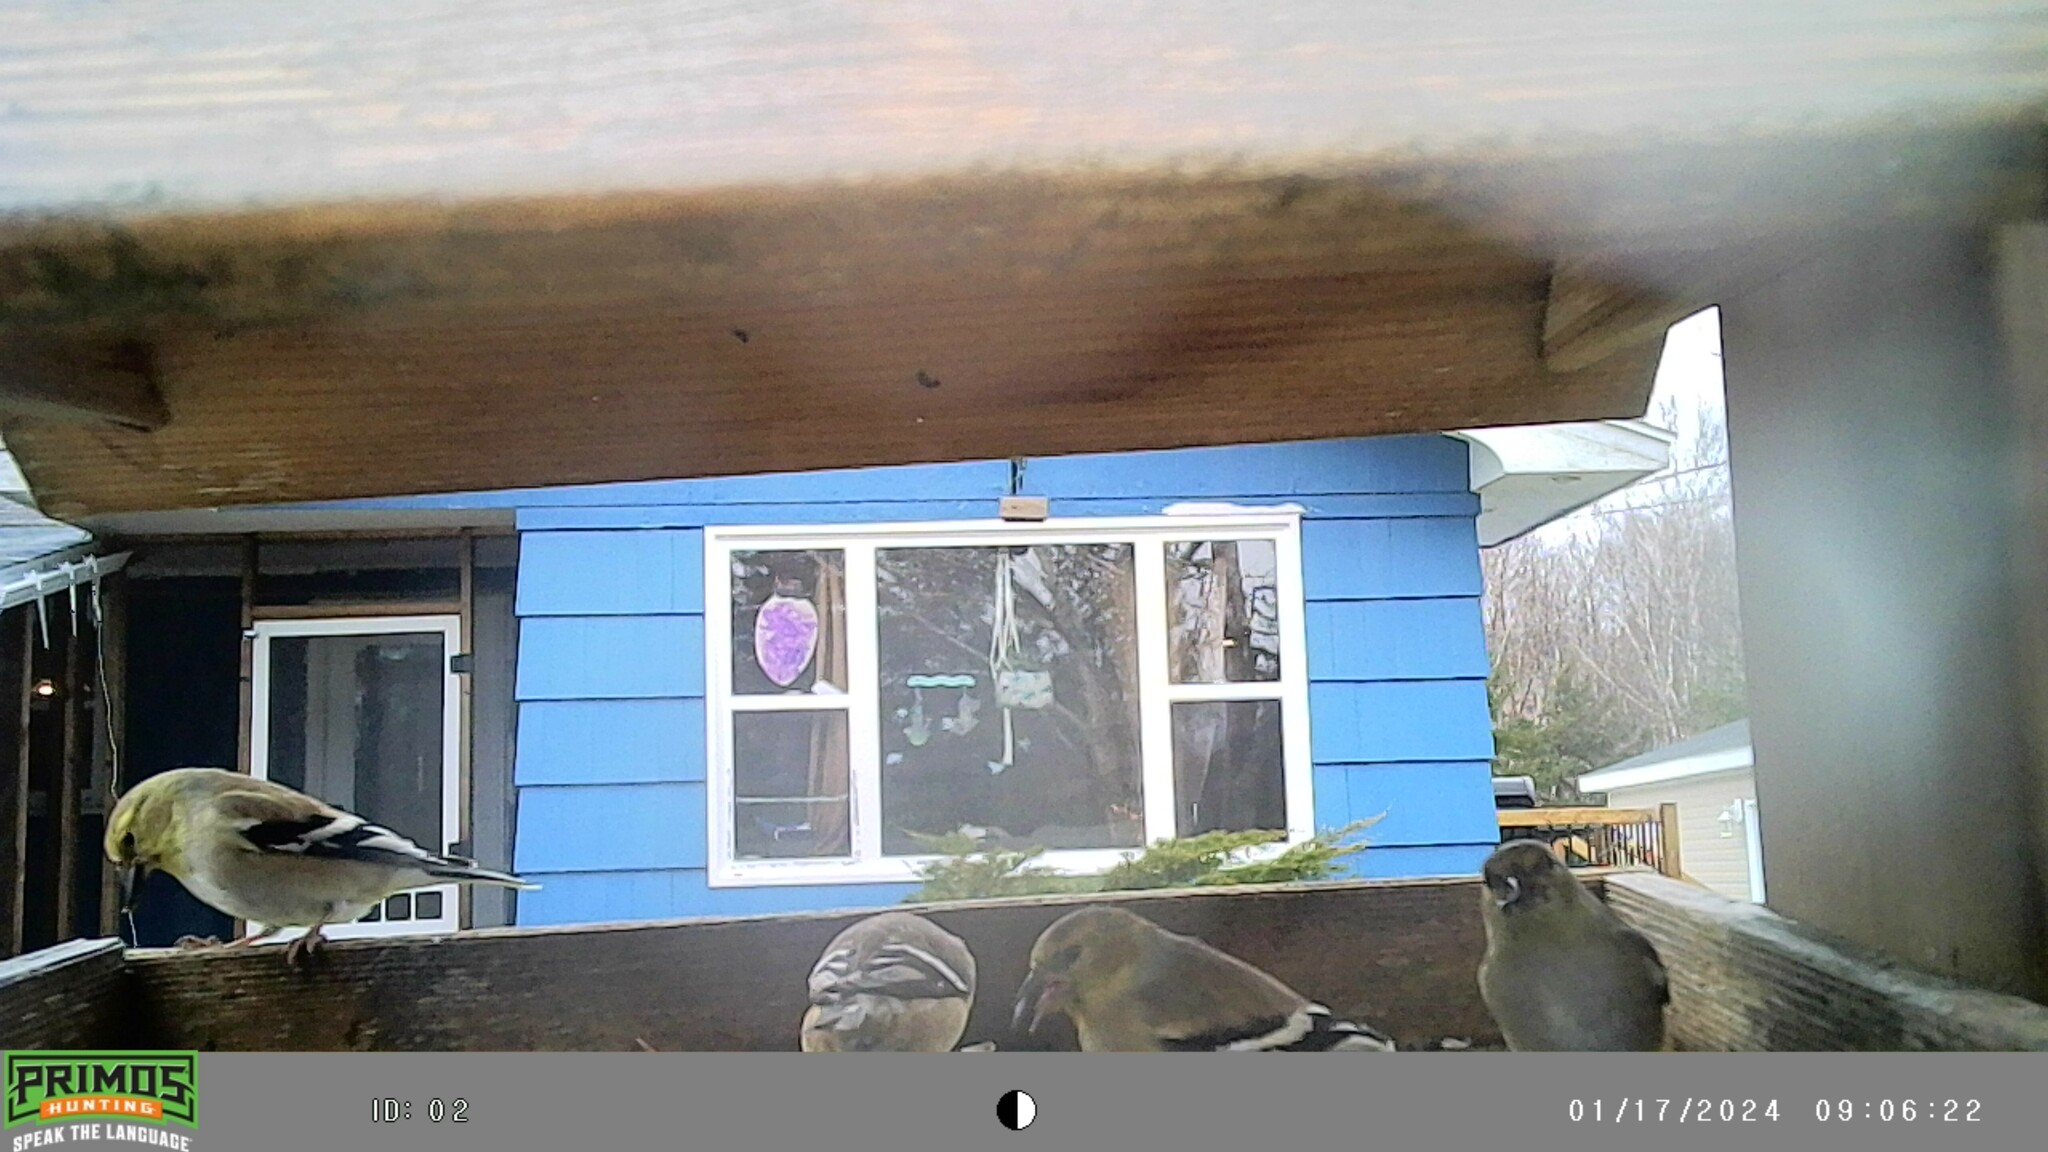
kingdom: Animalia
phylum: Chordata
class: Aves
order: Passeriformes
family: Fringillidae
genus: Spinus
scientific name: Spinus tristis
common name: American goldfinch
